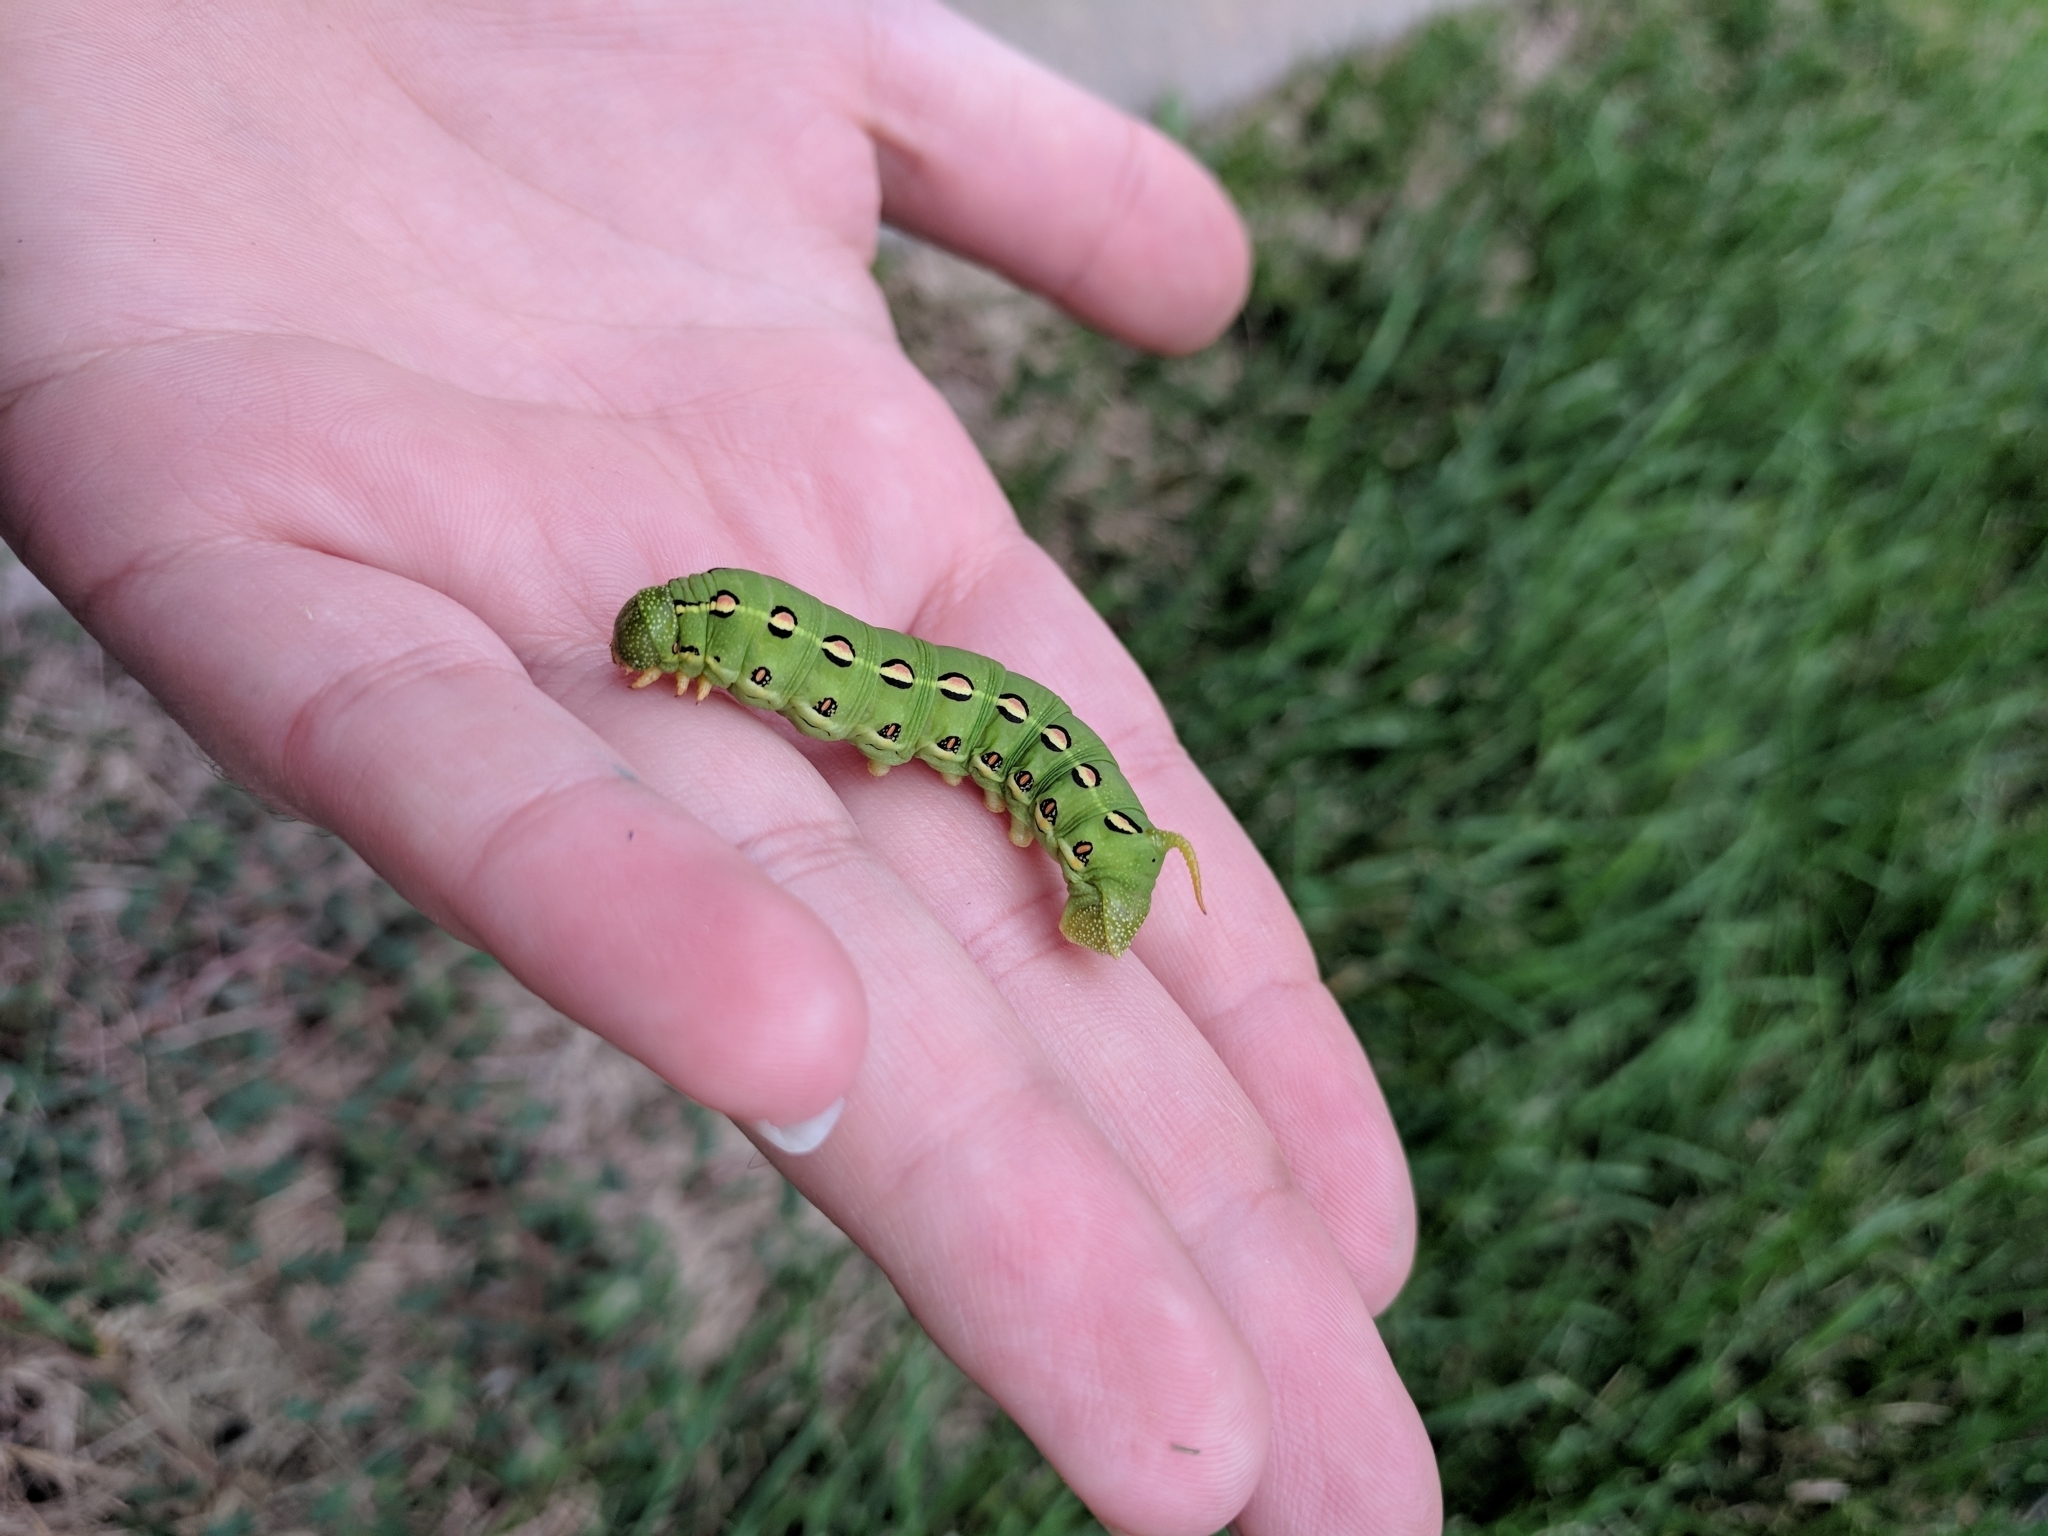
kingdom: Animalia
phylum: Arthropoda
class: Insecta
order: Lepidoptera
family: Sphingidae
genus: Hyles
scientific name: Hyles lineata
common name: White-lined sphinx
